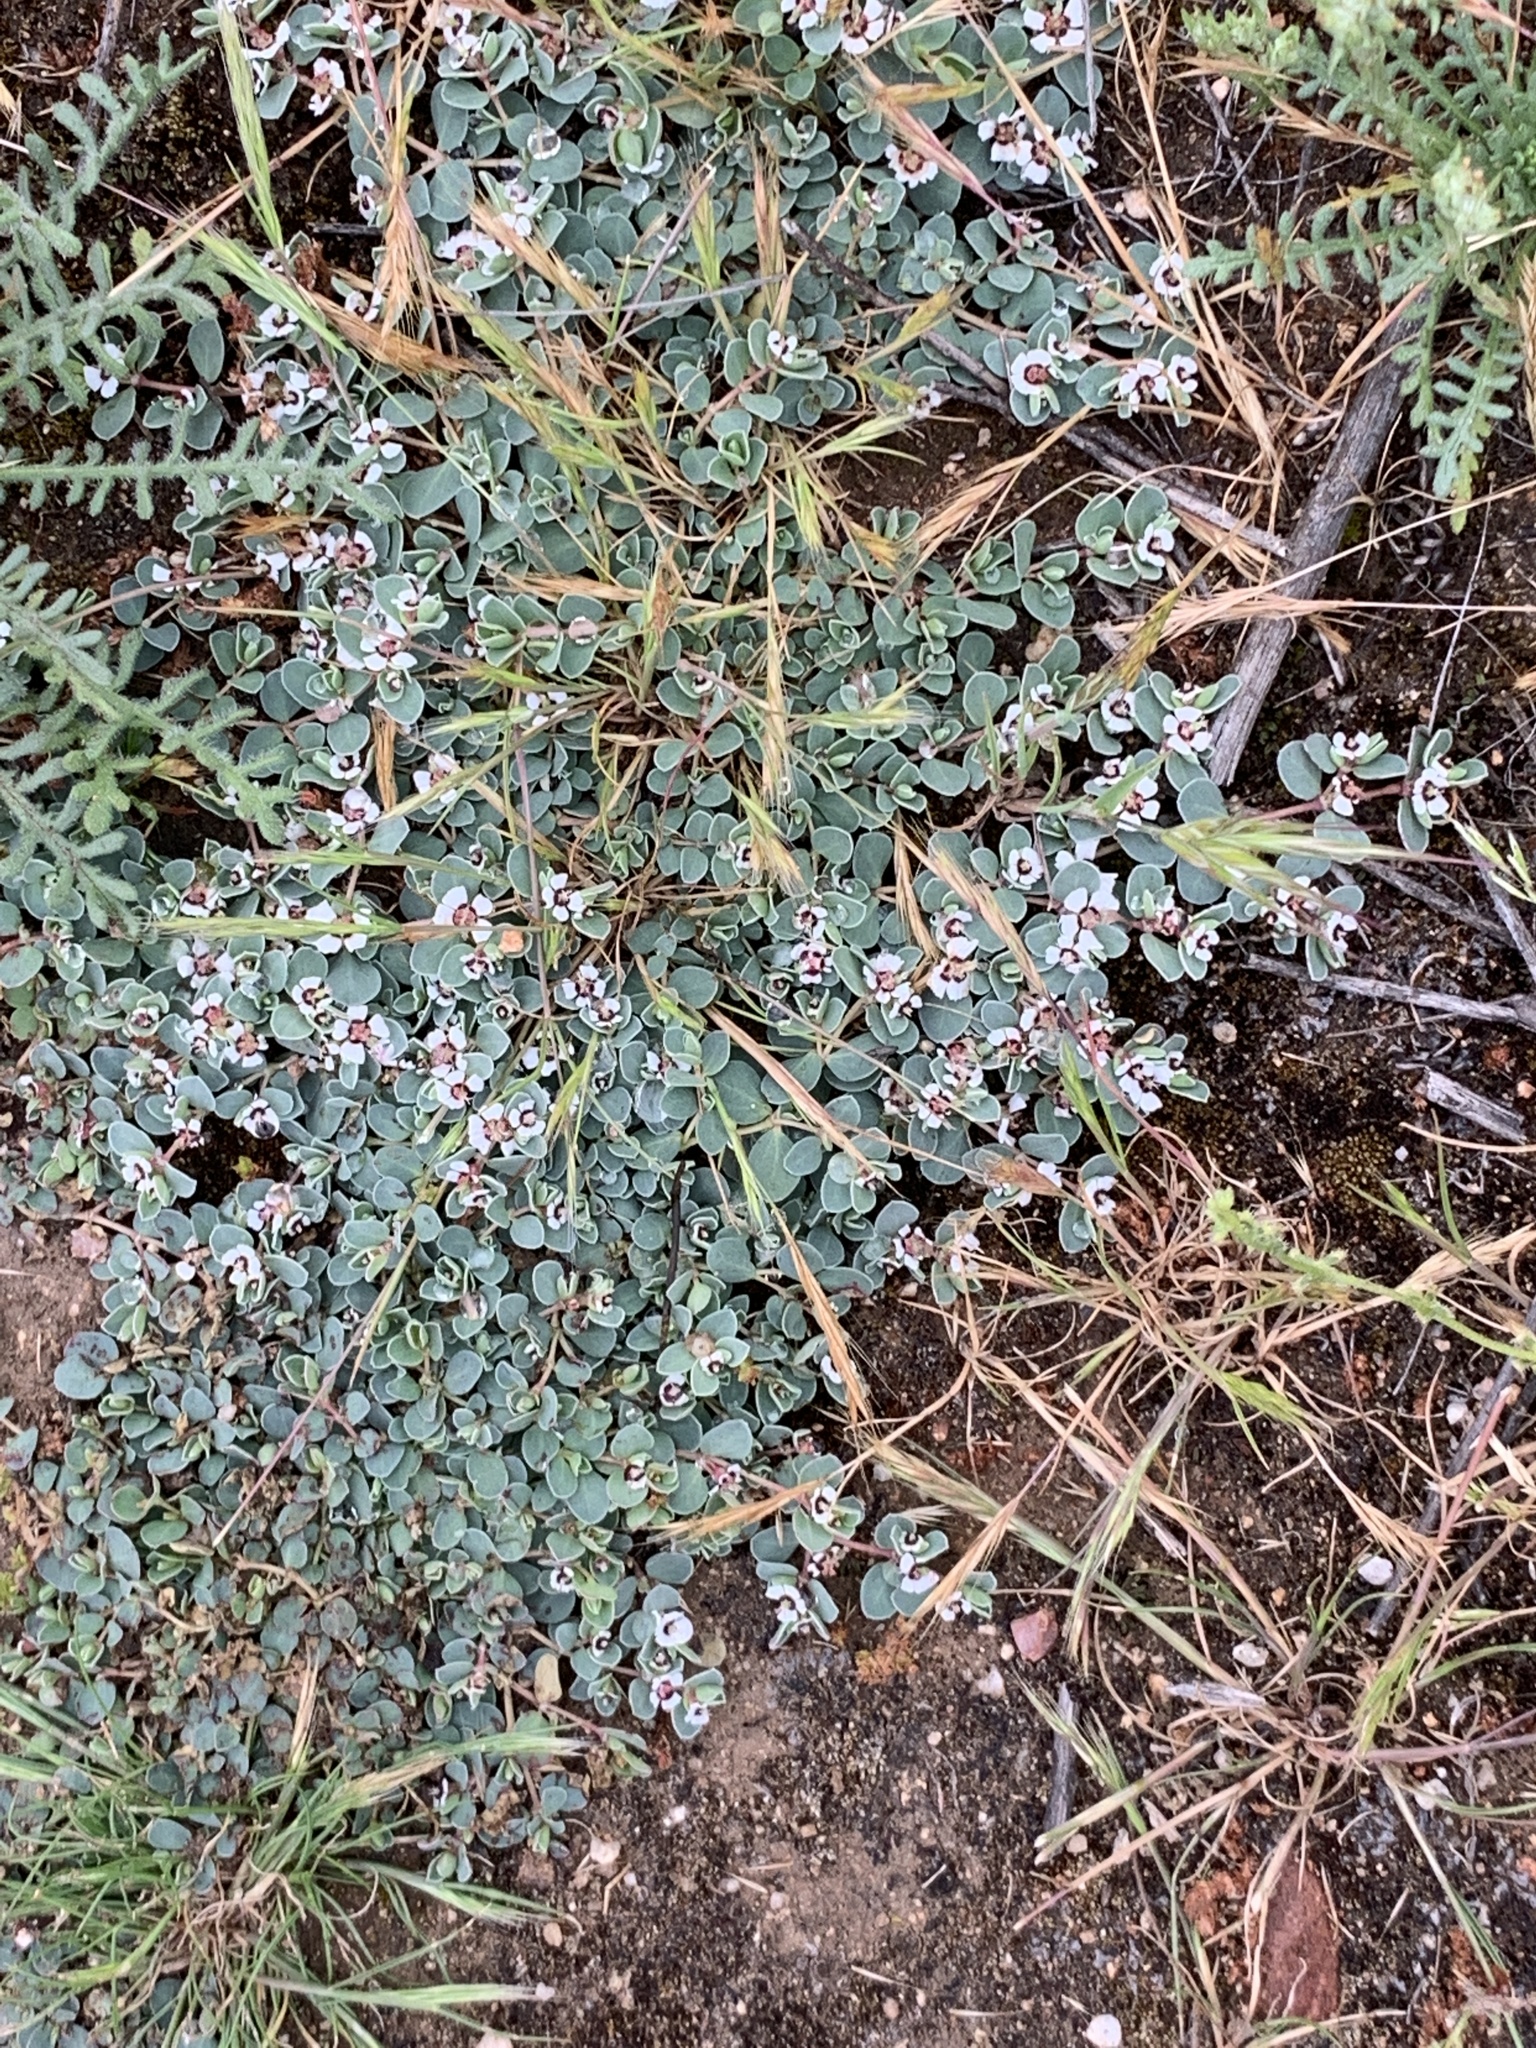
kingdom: Plantae
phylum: Tracheophyta
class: Magnoliopsida
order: Malpighiales
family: Euphorbiaceae
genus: Euphorbia
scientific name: Euphorbia albomarginata
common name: Whitemargin sandmat
